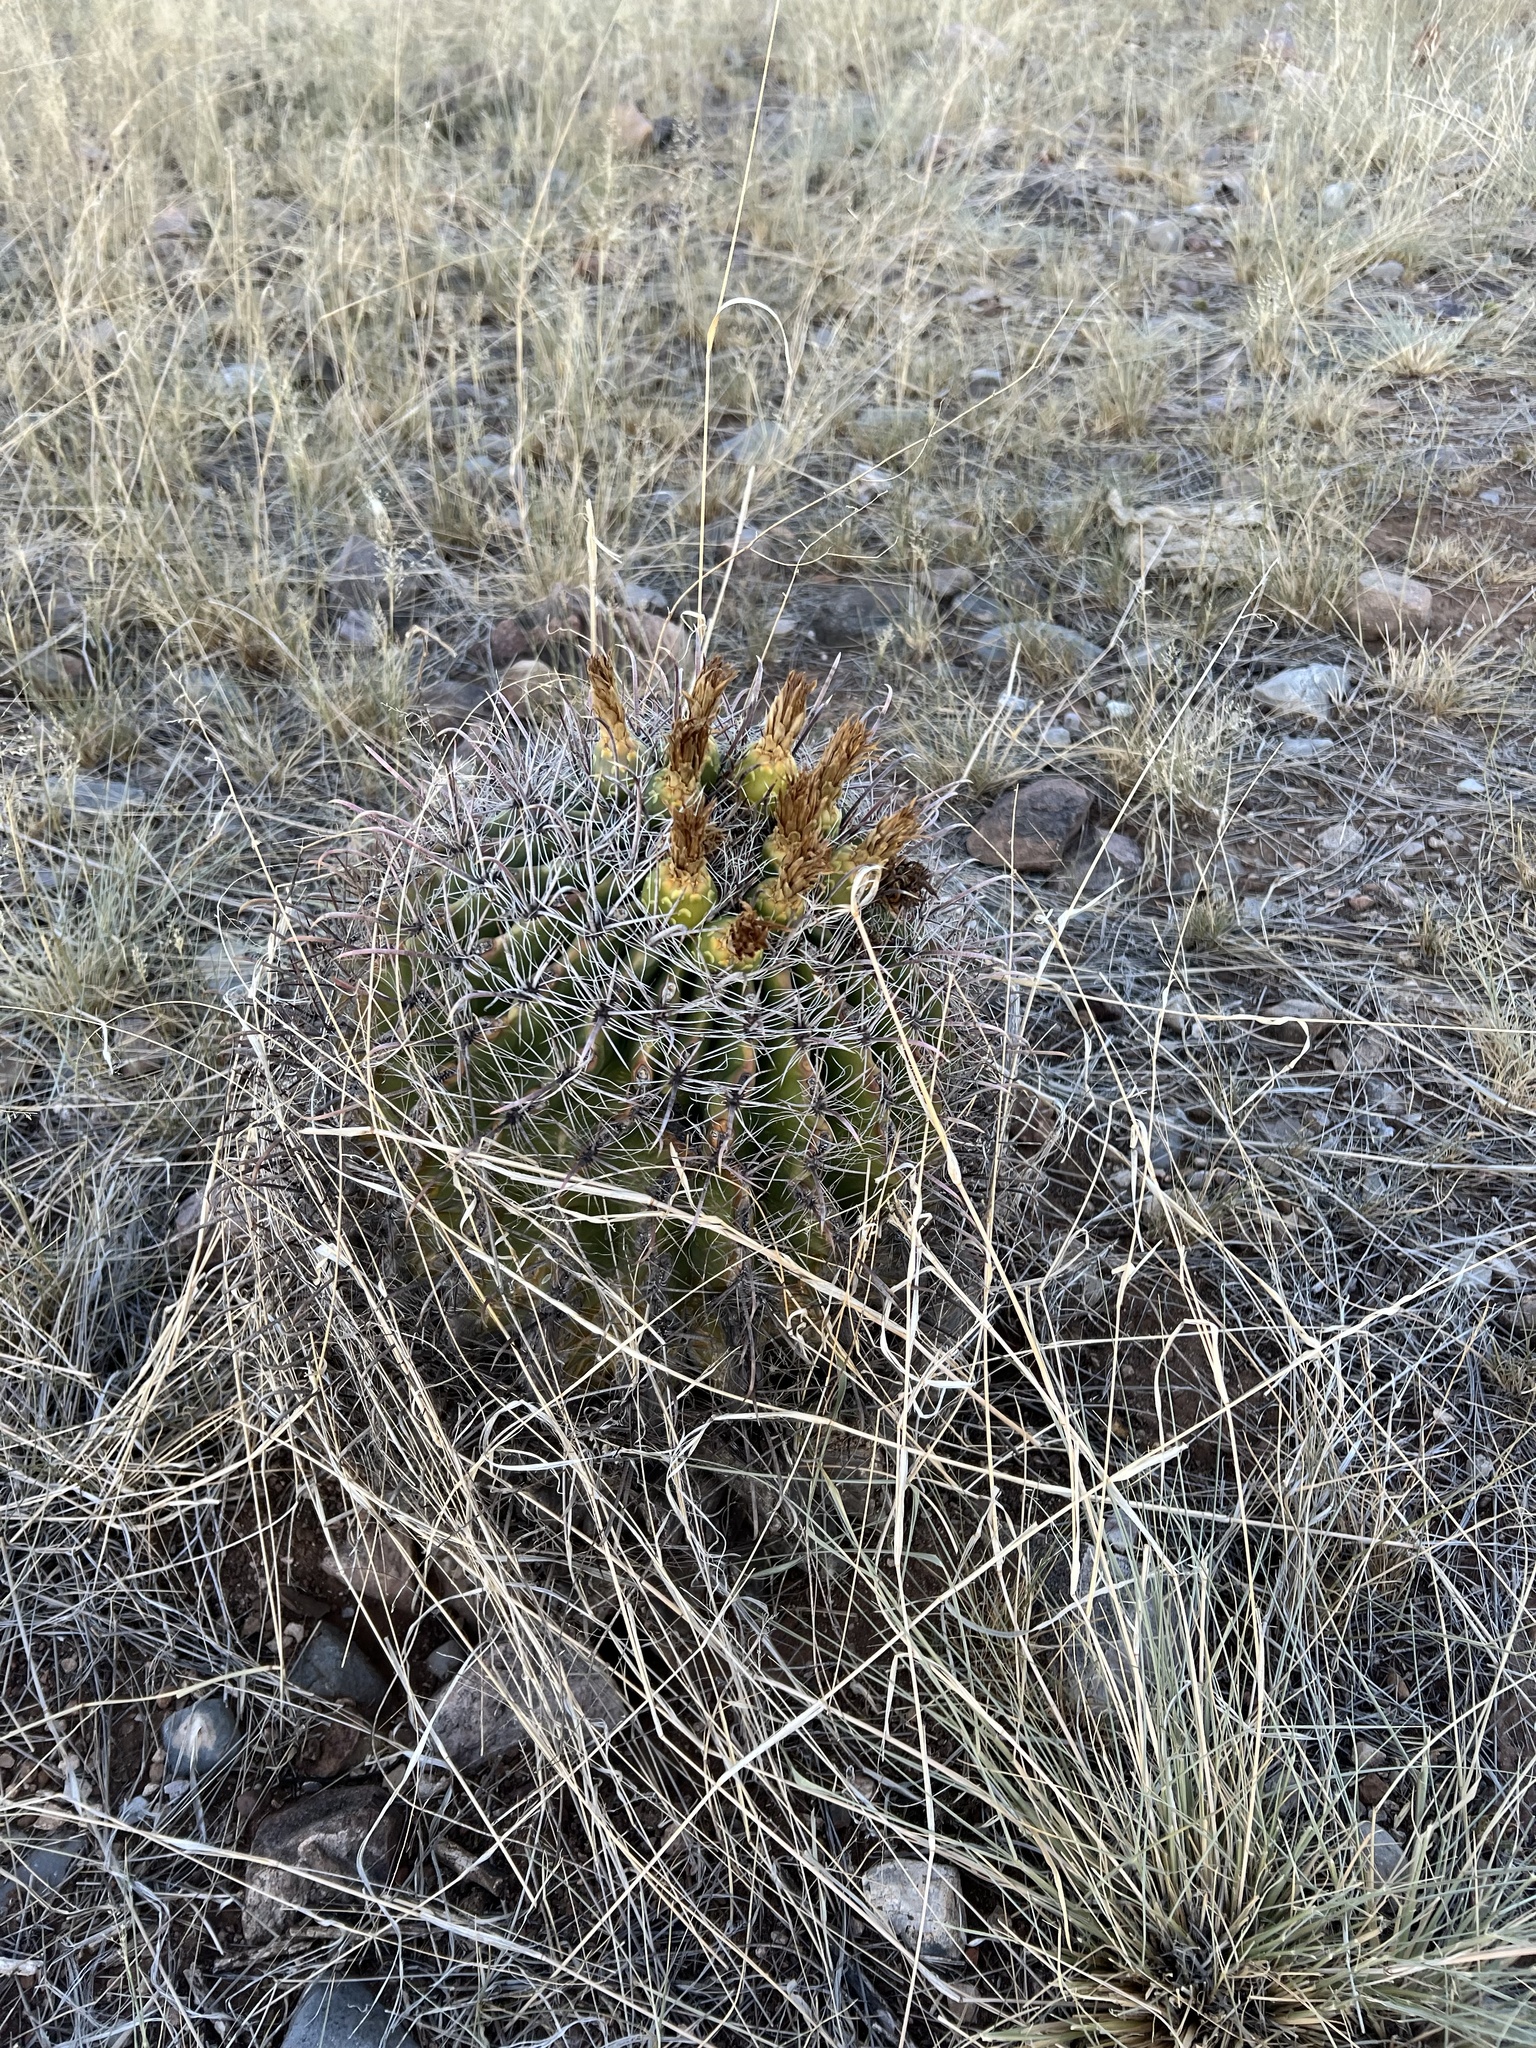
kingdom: Plantae
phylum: Tracheophyta
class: Magnoliopsida
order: Caryophyllales
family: Cactaceae
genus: Ferocactus
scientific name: Ferocactus wislizeni
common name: Candy barrel cactus
